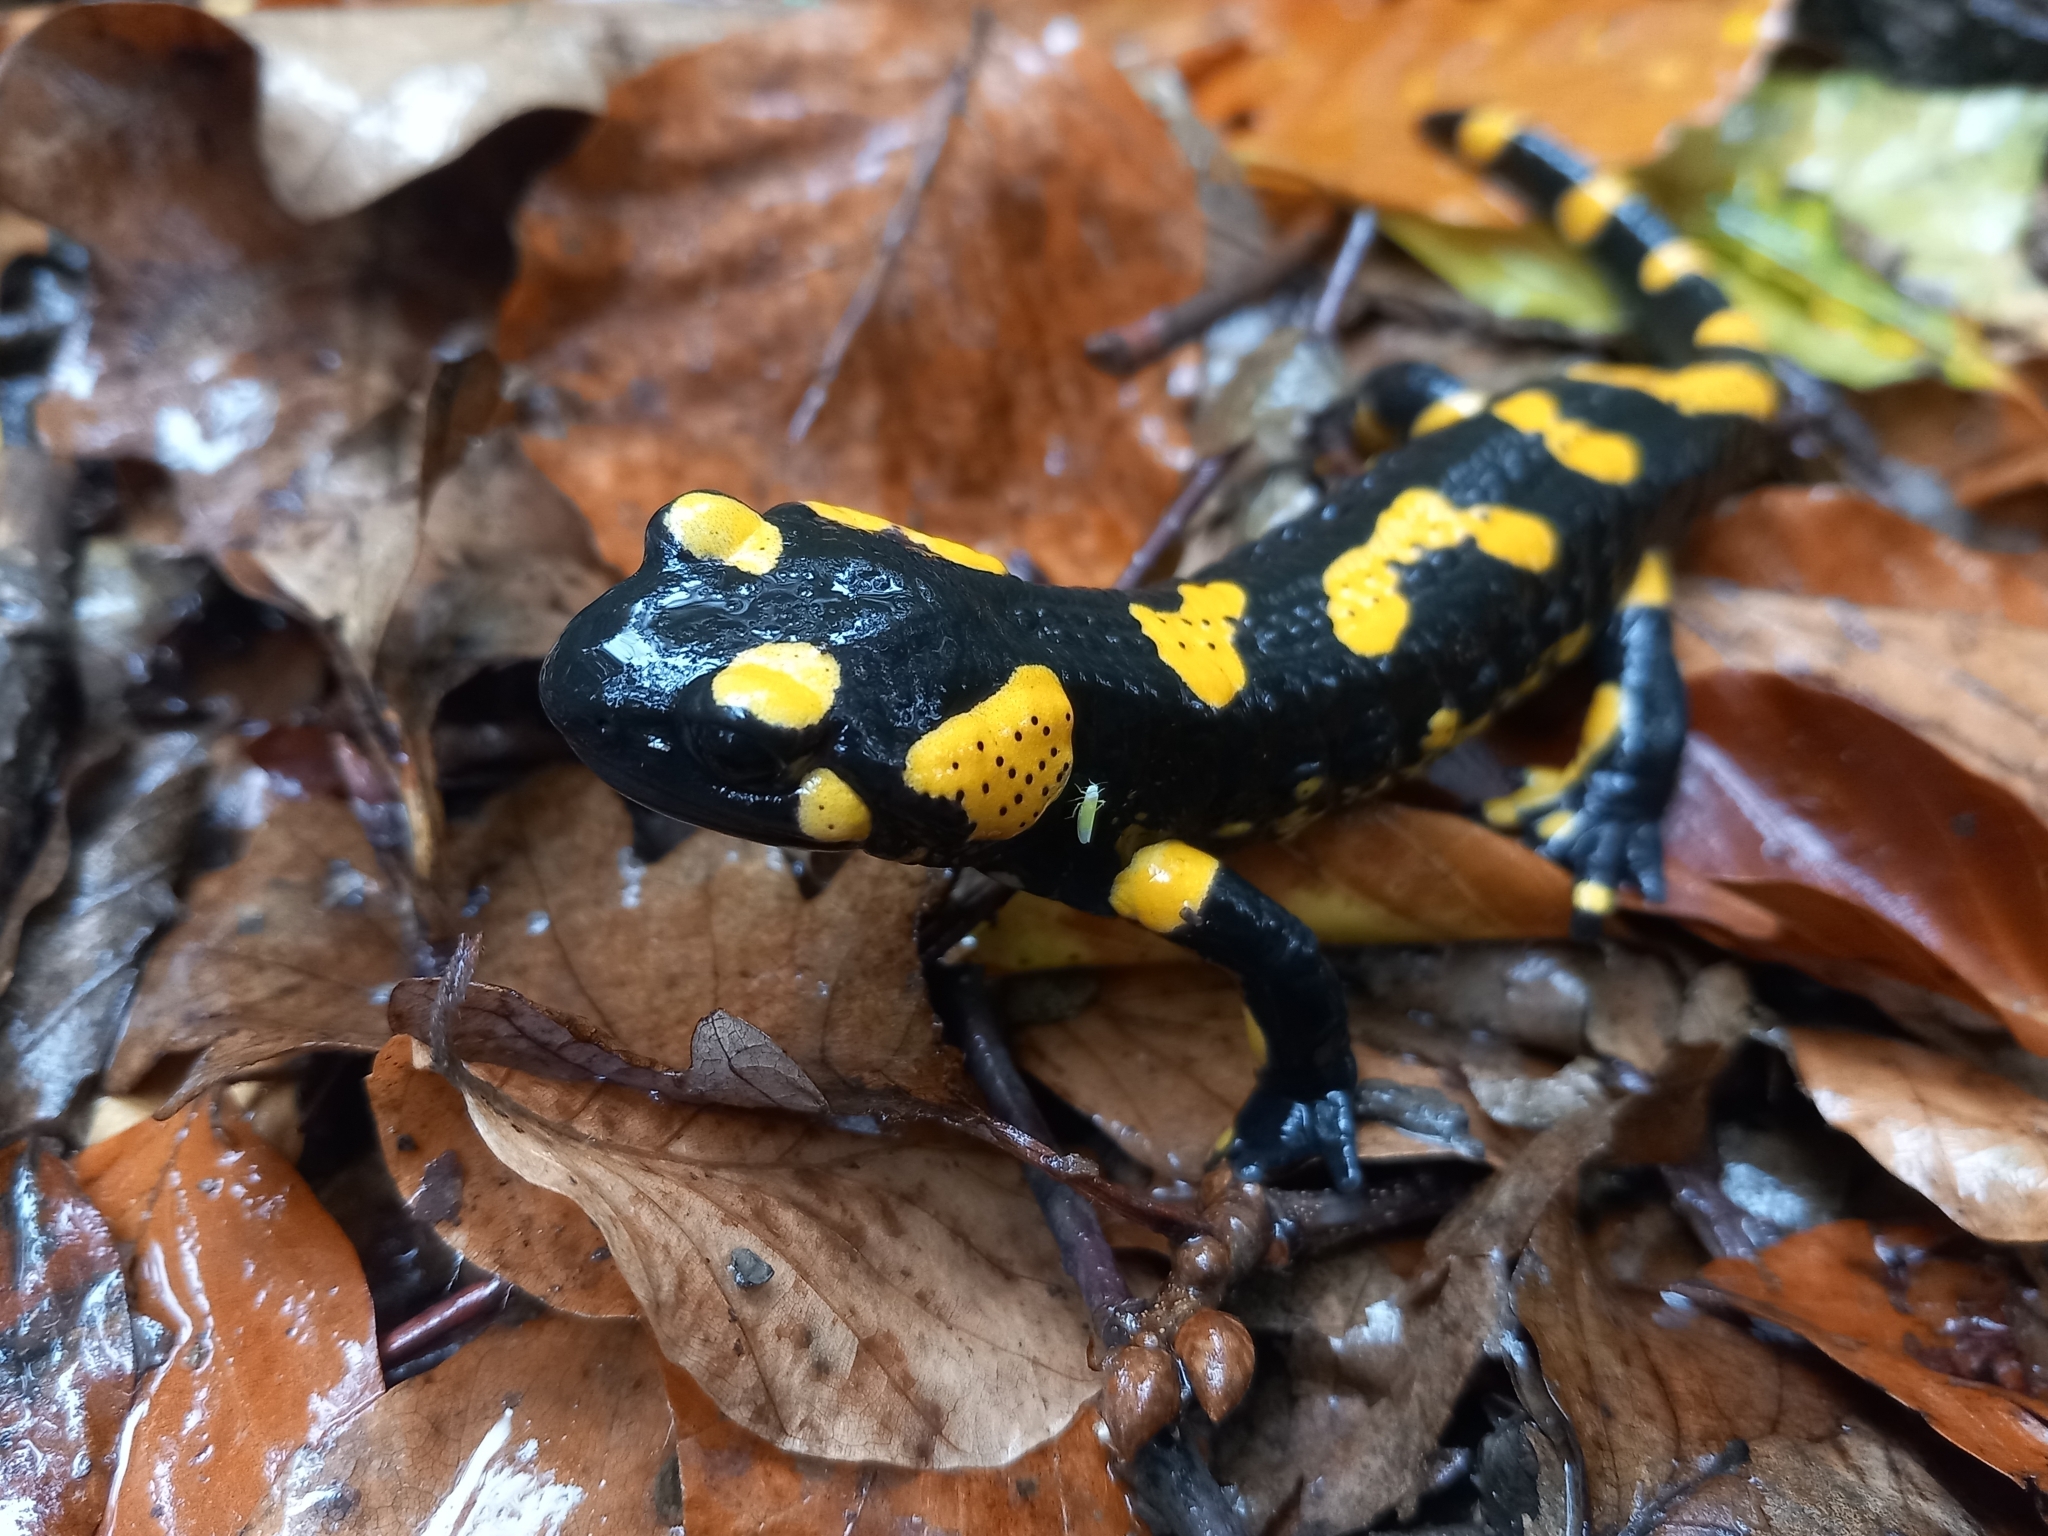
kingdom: Animalia
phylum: Chordata
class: Amphibia
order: Caudata
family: Salamandridae
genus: Salamandra
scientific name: Salamandra salamandra
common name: Fire salamander
